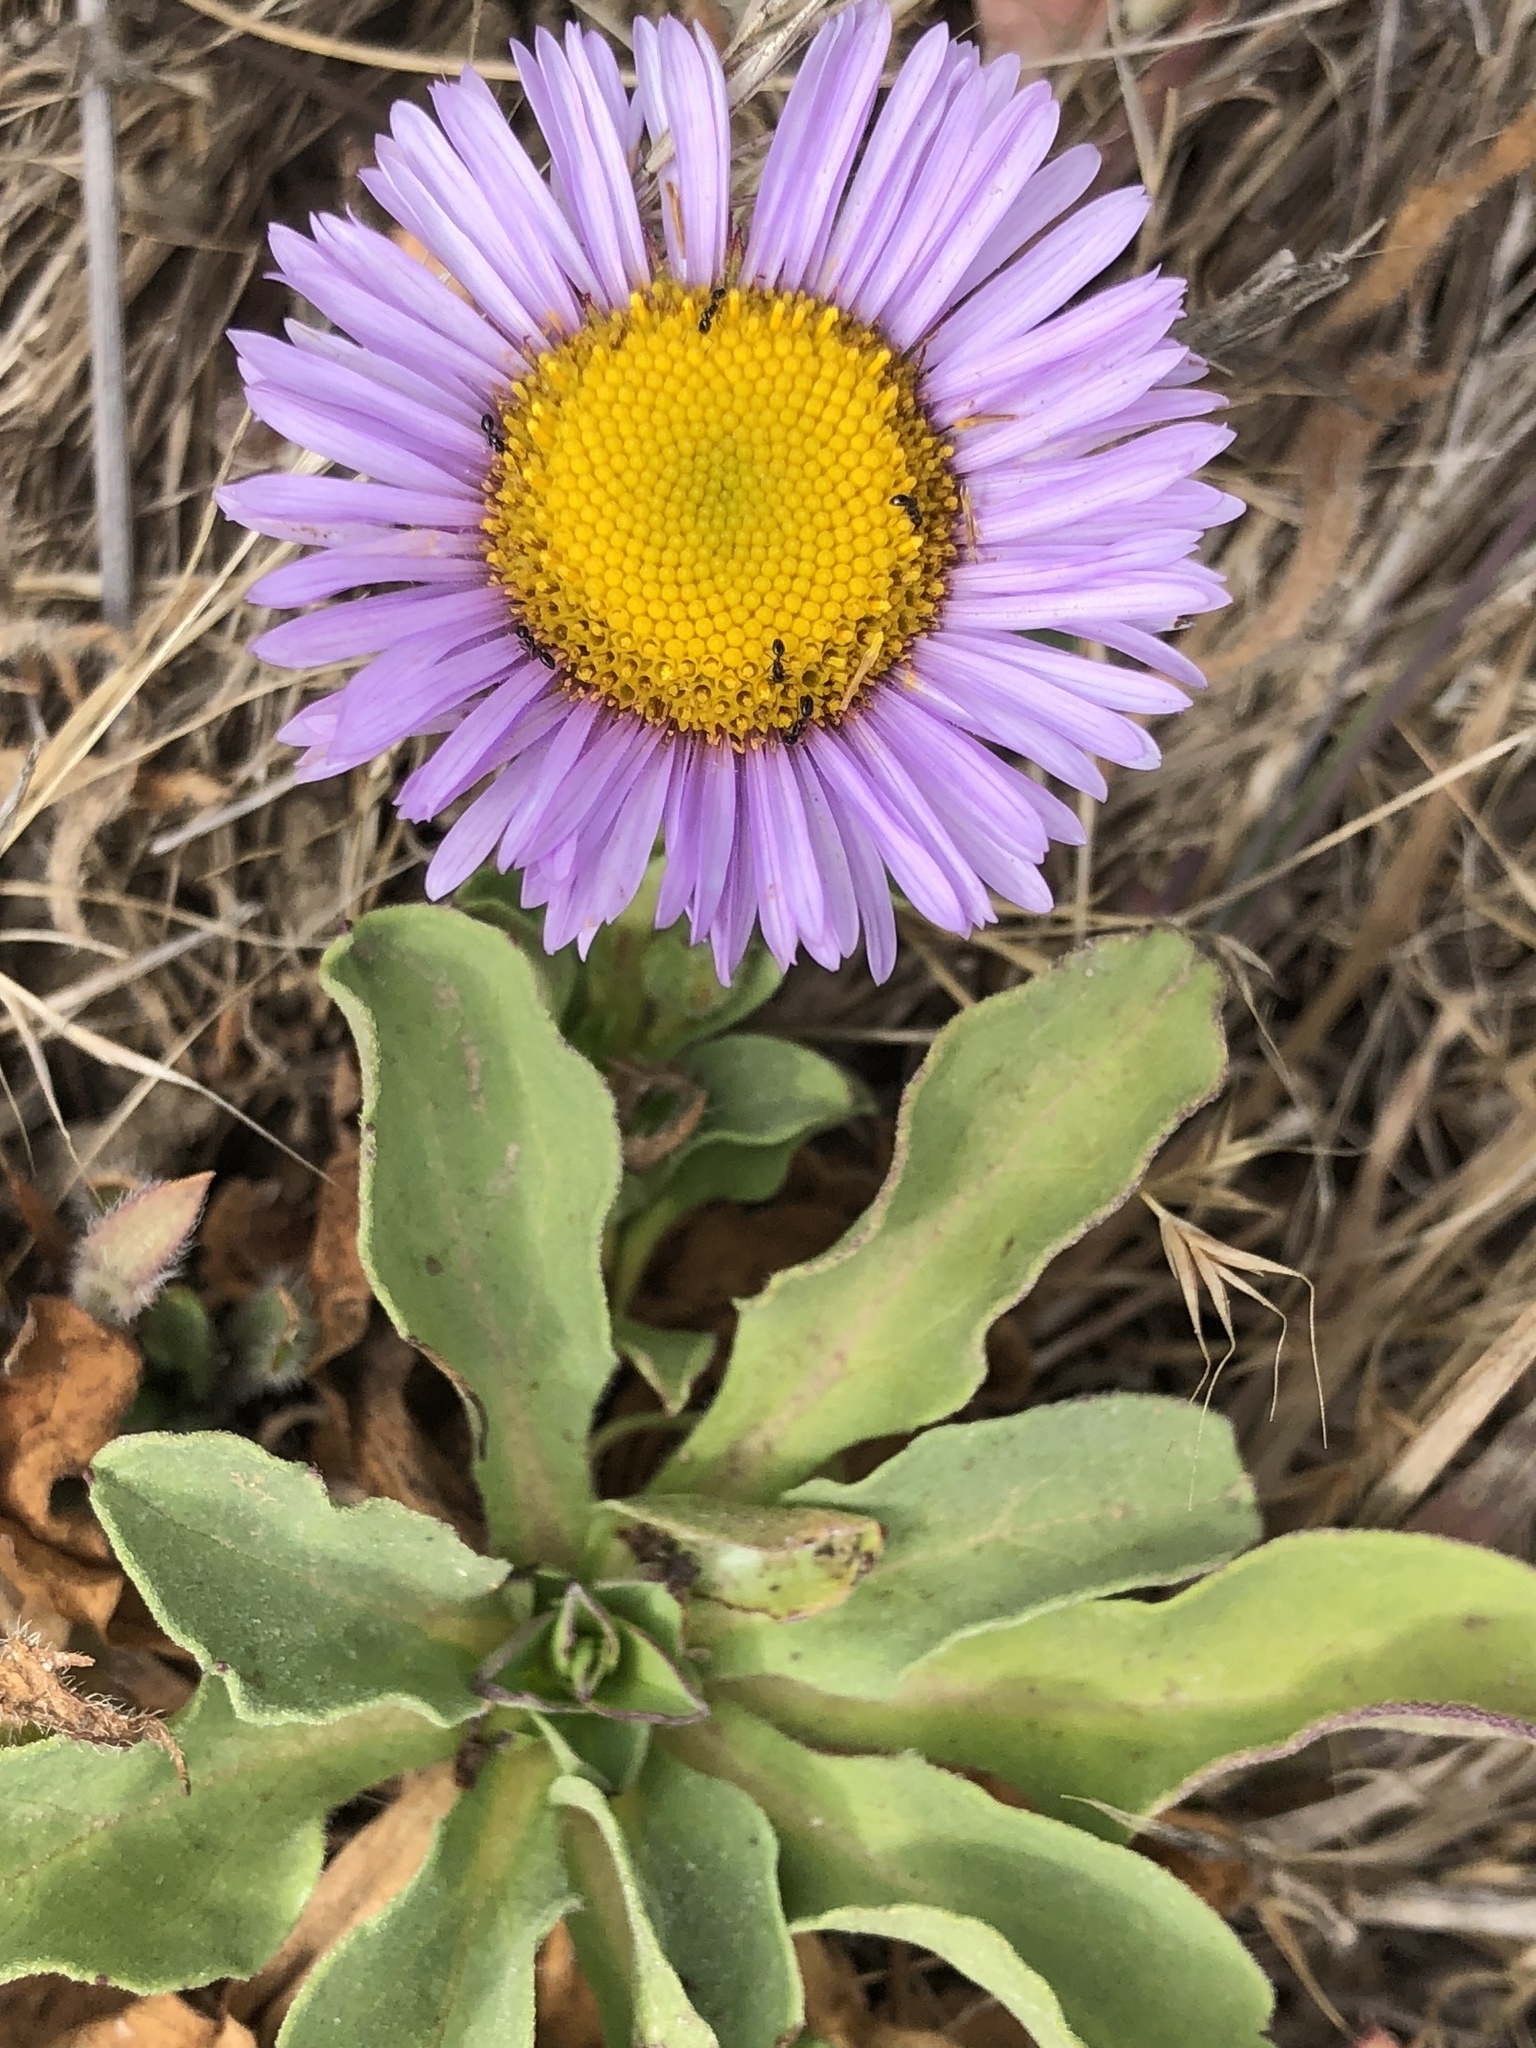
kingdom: Plantae
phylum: Tracheophyta
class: Magnoliopsida
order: Asterales
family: Asteraceae
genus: Erigeron
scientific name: Erigeron glaucus
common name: Seaside daisy
